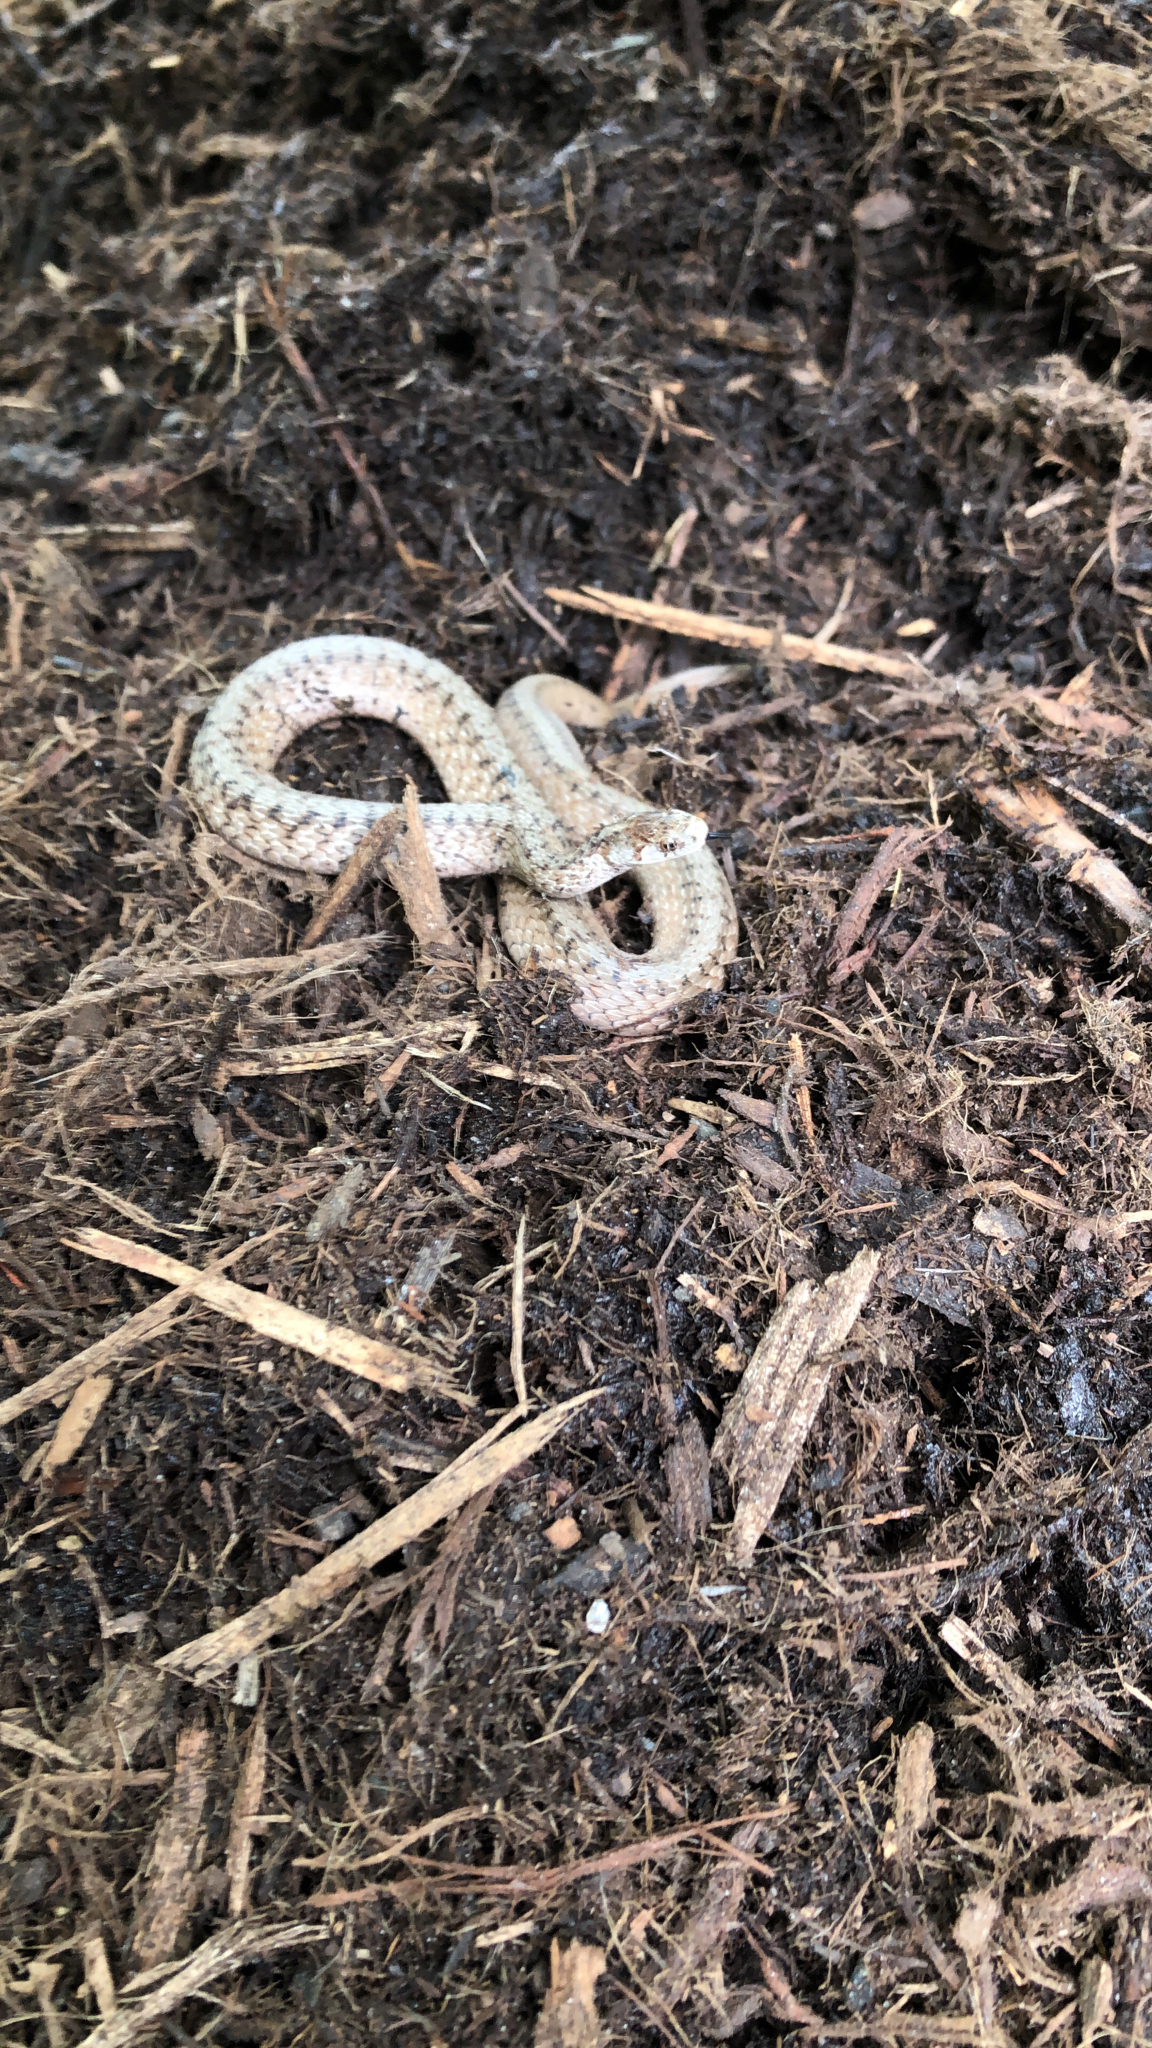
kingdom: Animalia
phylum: Chordata
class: Squamata
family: Colubridae
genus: Storeria
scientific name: Storeria dekayi
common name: (dekay’s) brown snake
